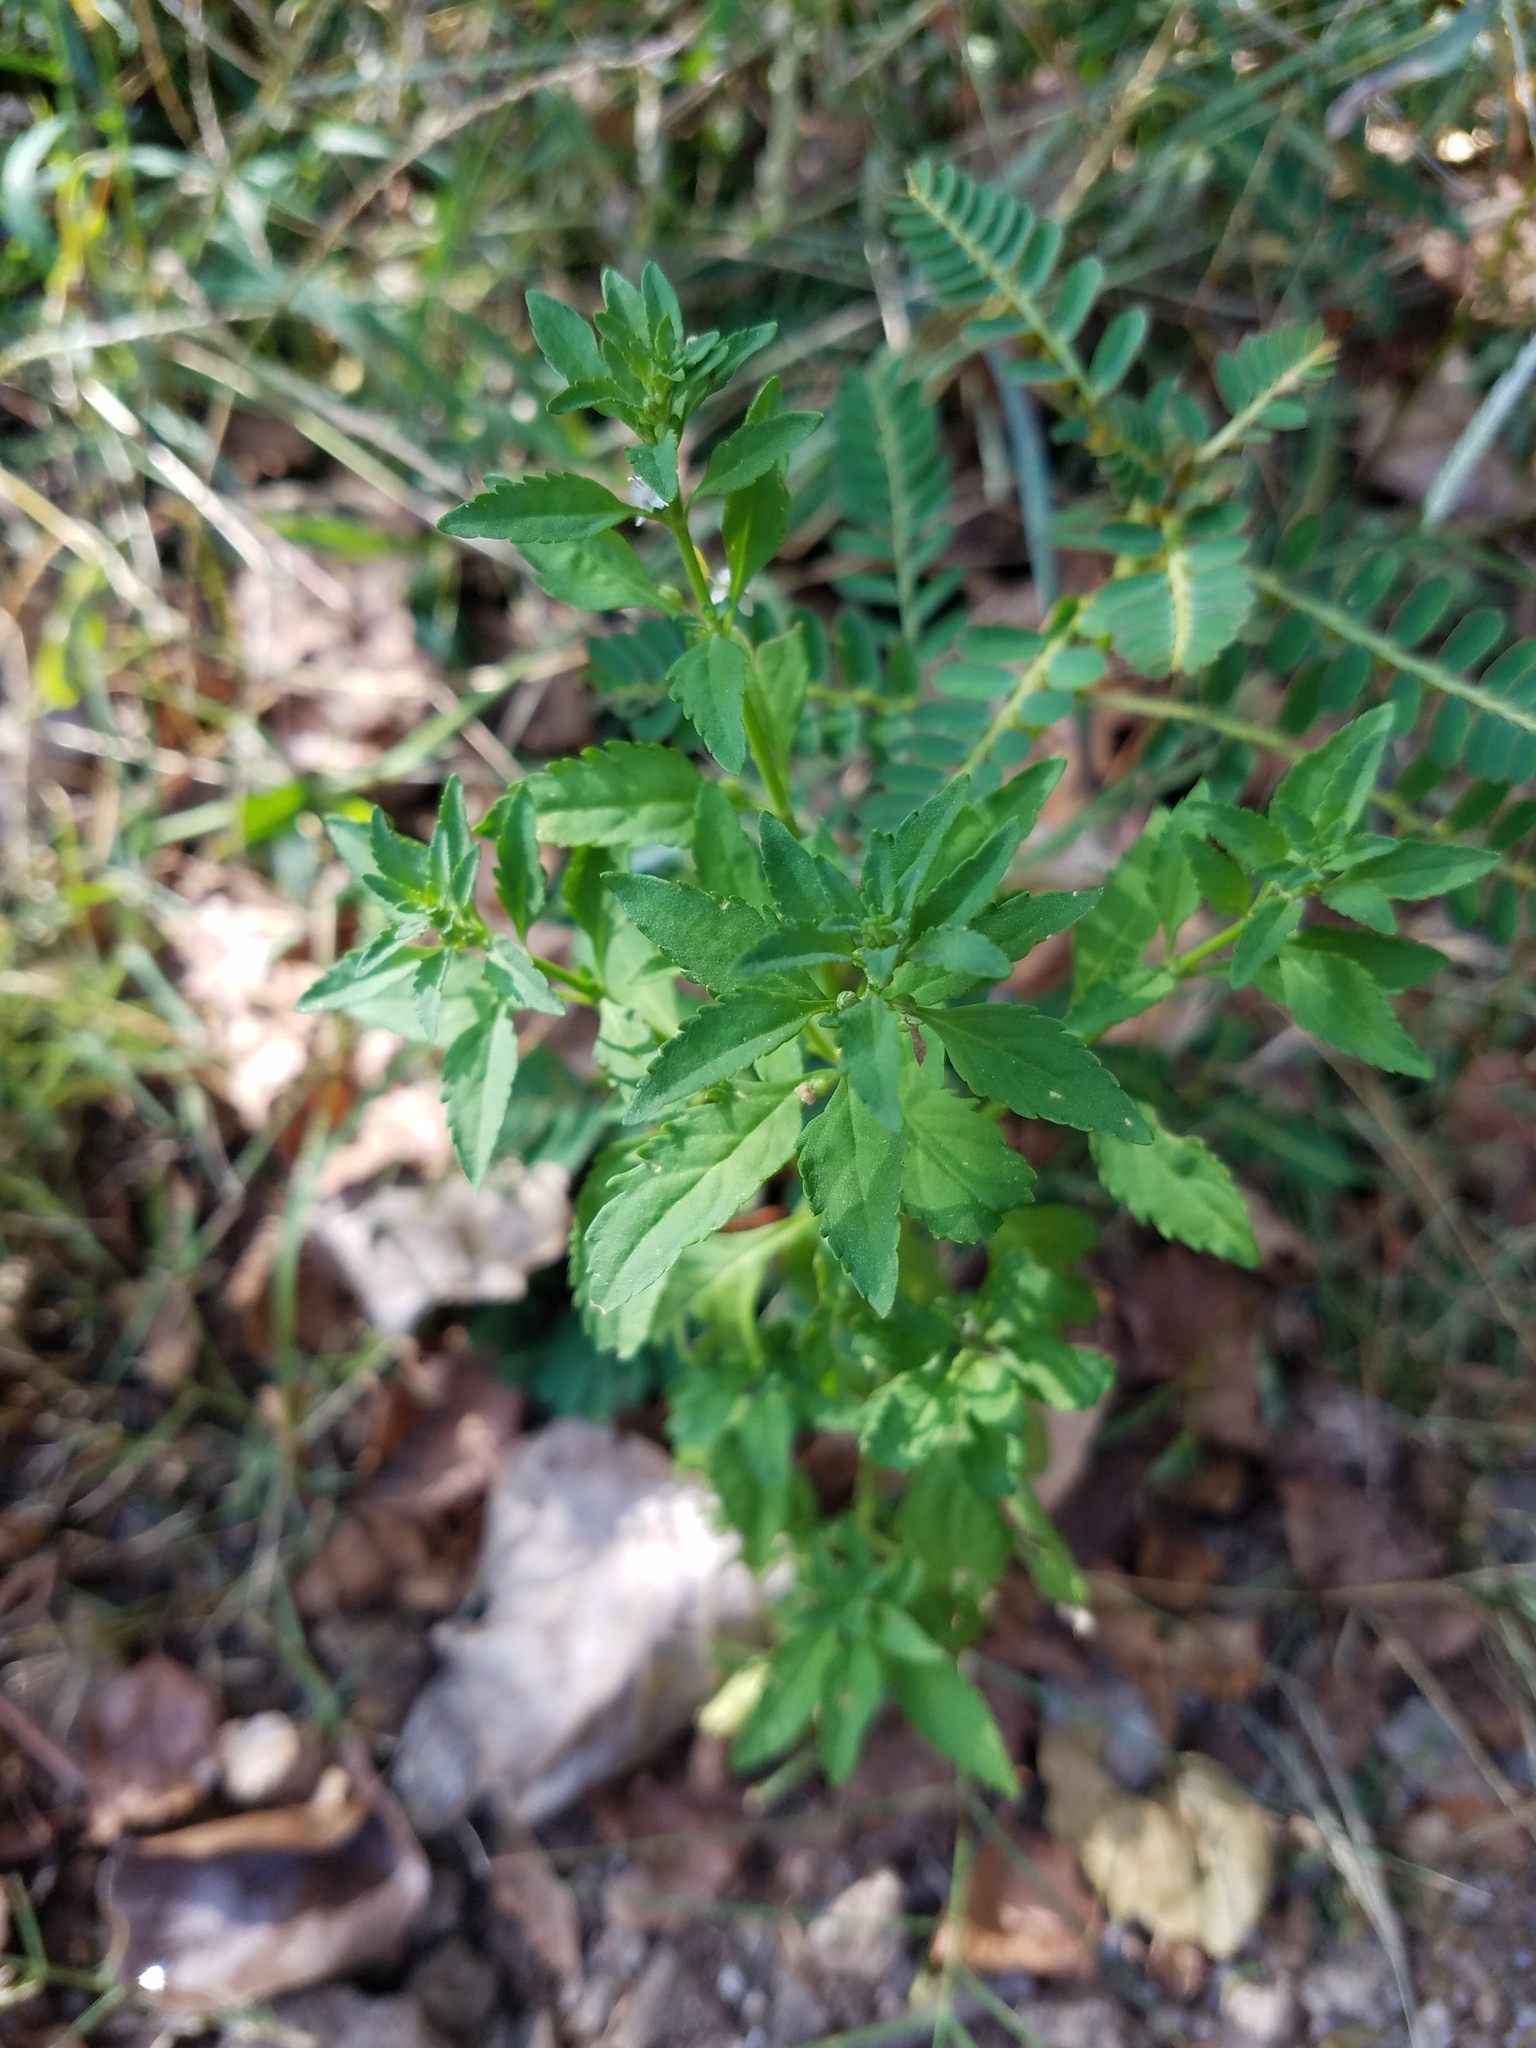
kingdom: Plantae
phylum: Tracheophyta
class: Magnoliopsida
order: Lamiales
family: Plantaginaceae
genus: Scoparia
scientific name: Scoparia dulcis
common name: Scoparia-weed
